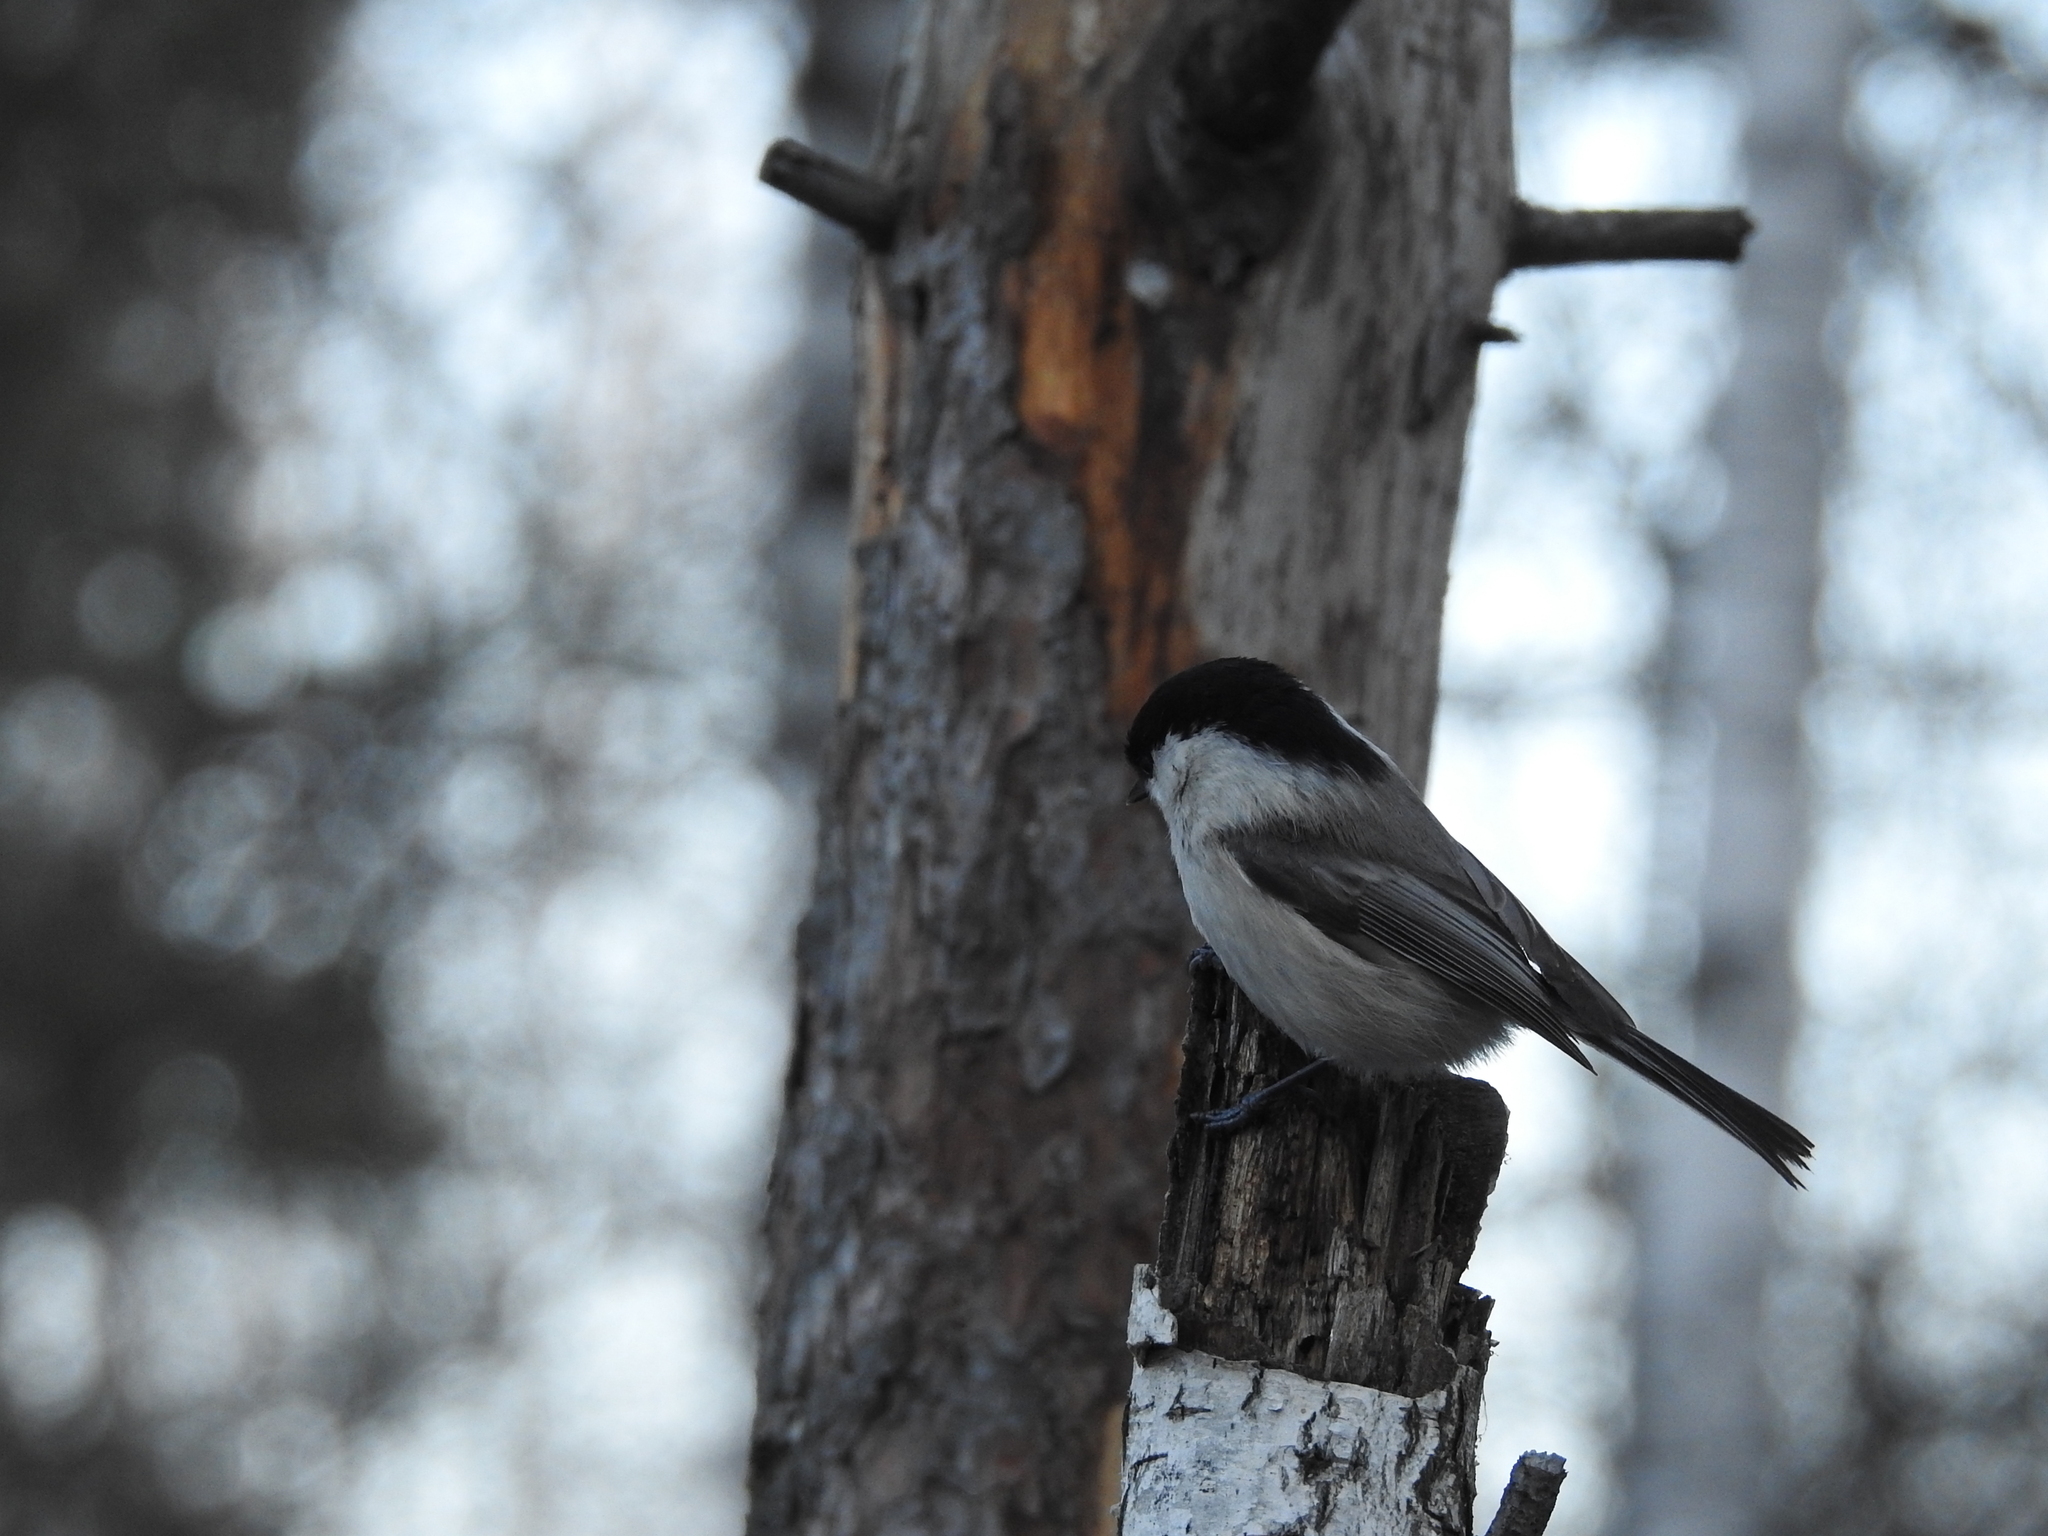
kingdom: Animalia
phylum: Chordata
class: Aves
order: Passeriformes
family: Paridae
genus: Poecile
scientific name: Poecile montanus
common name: Willow tit
